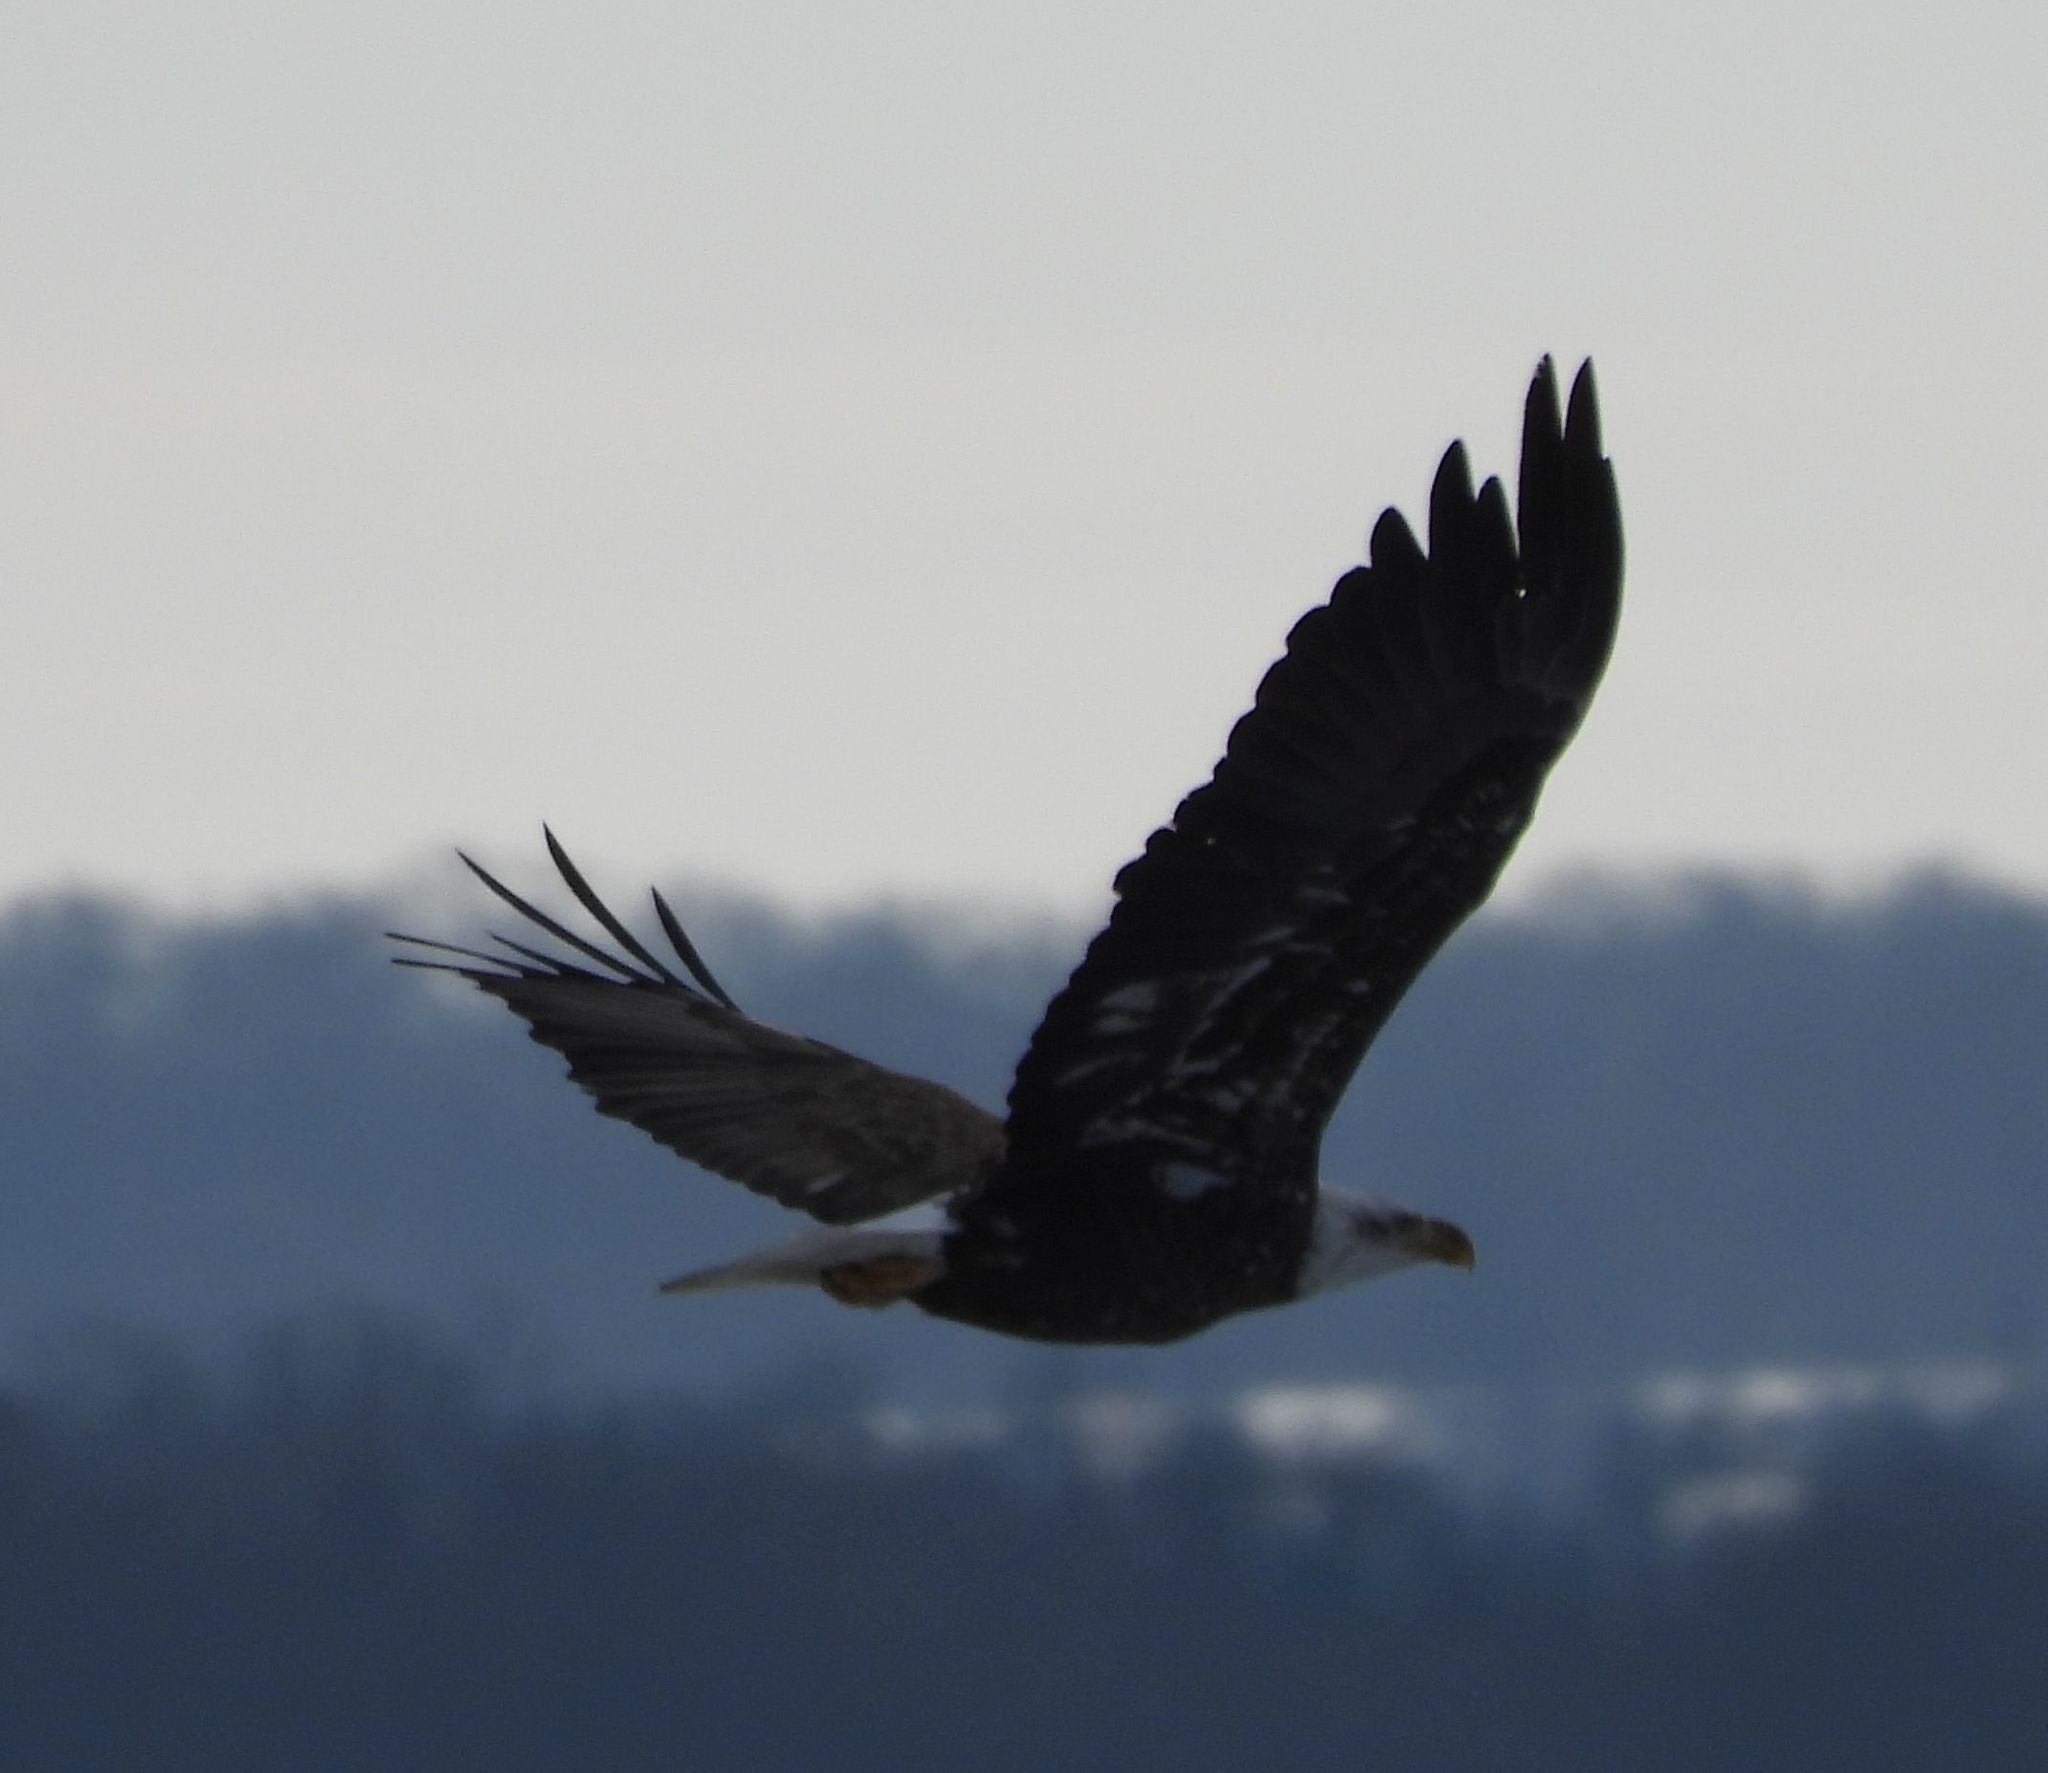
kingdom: Animalia
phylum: Chordata
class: Aves
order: Accipitriformes
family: Accipitridae
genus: Haliaeetus
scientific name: Haliaeetus leucocephalus
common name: Bald eagle
